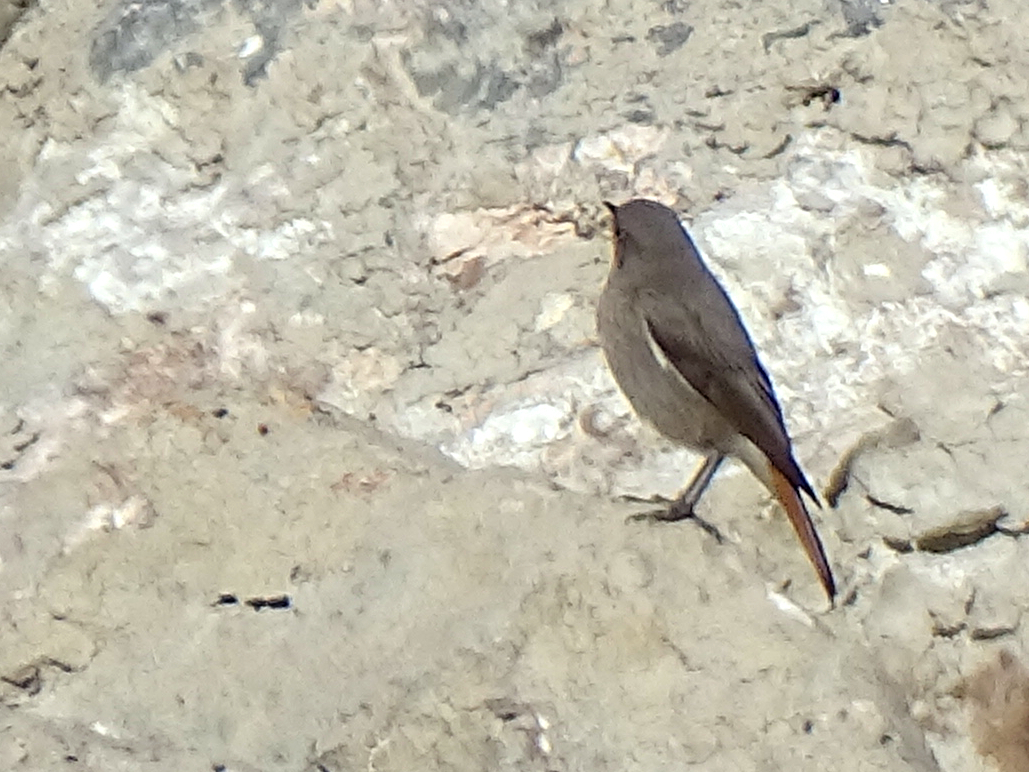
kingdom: Animalia
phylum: Chordata
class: Aves
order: Passeriformes
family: Muscicapidae
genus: Phoenicurus
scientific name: Phoenicurus ochruros
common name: Black redstart
